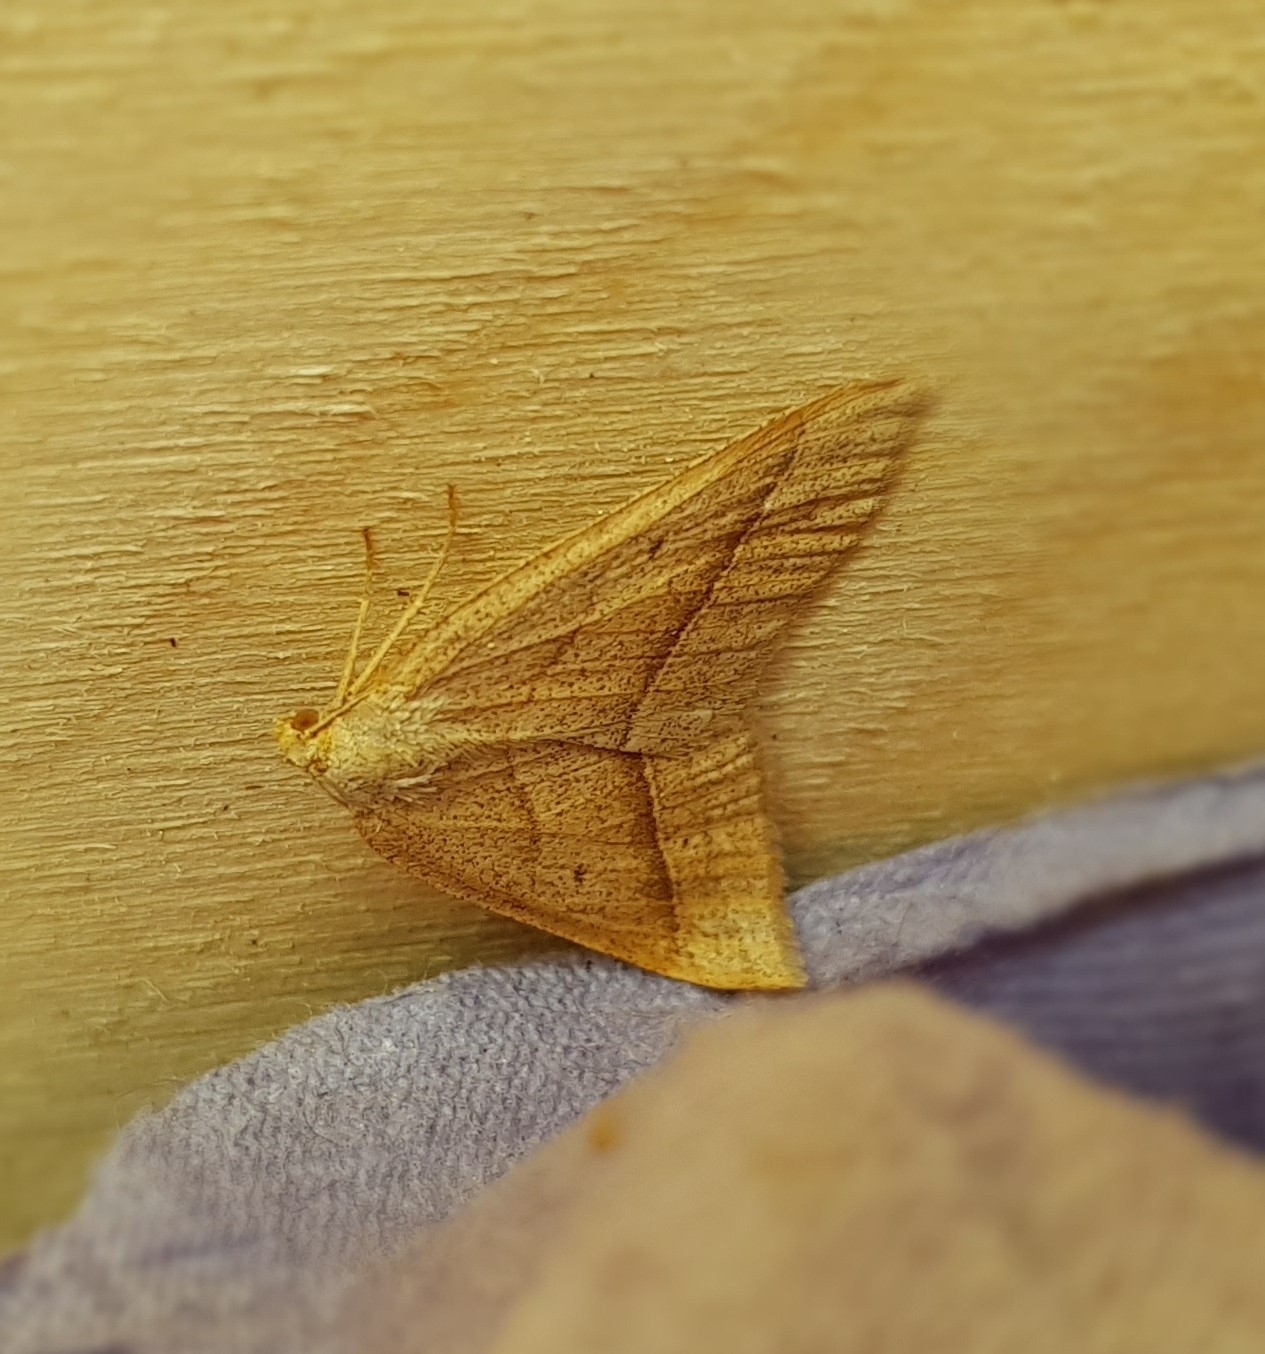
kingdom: Animalia
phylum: Arthropoda
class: Insecta
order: Lepidoptera
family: Pterophoridae
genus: Pterophorus
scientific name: Pterophorus Petrophora chlorosata
